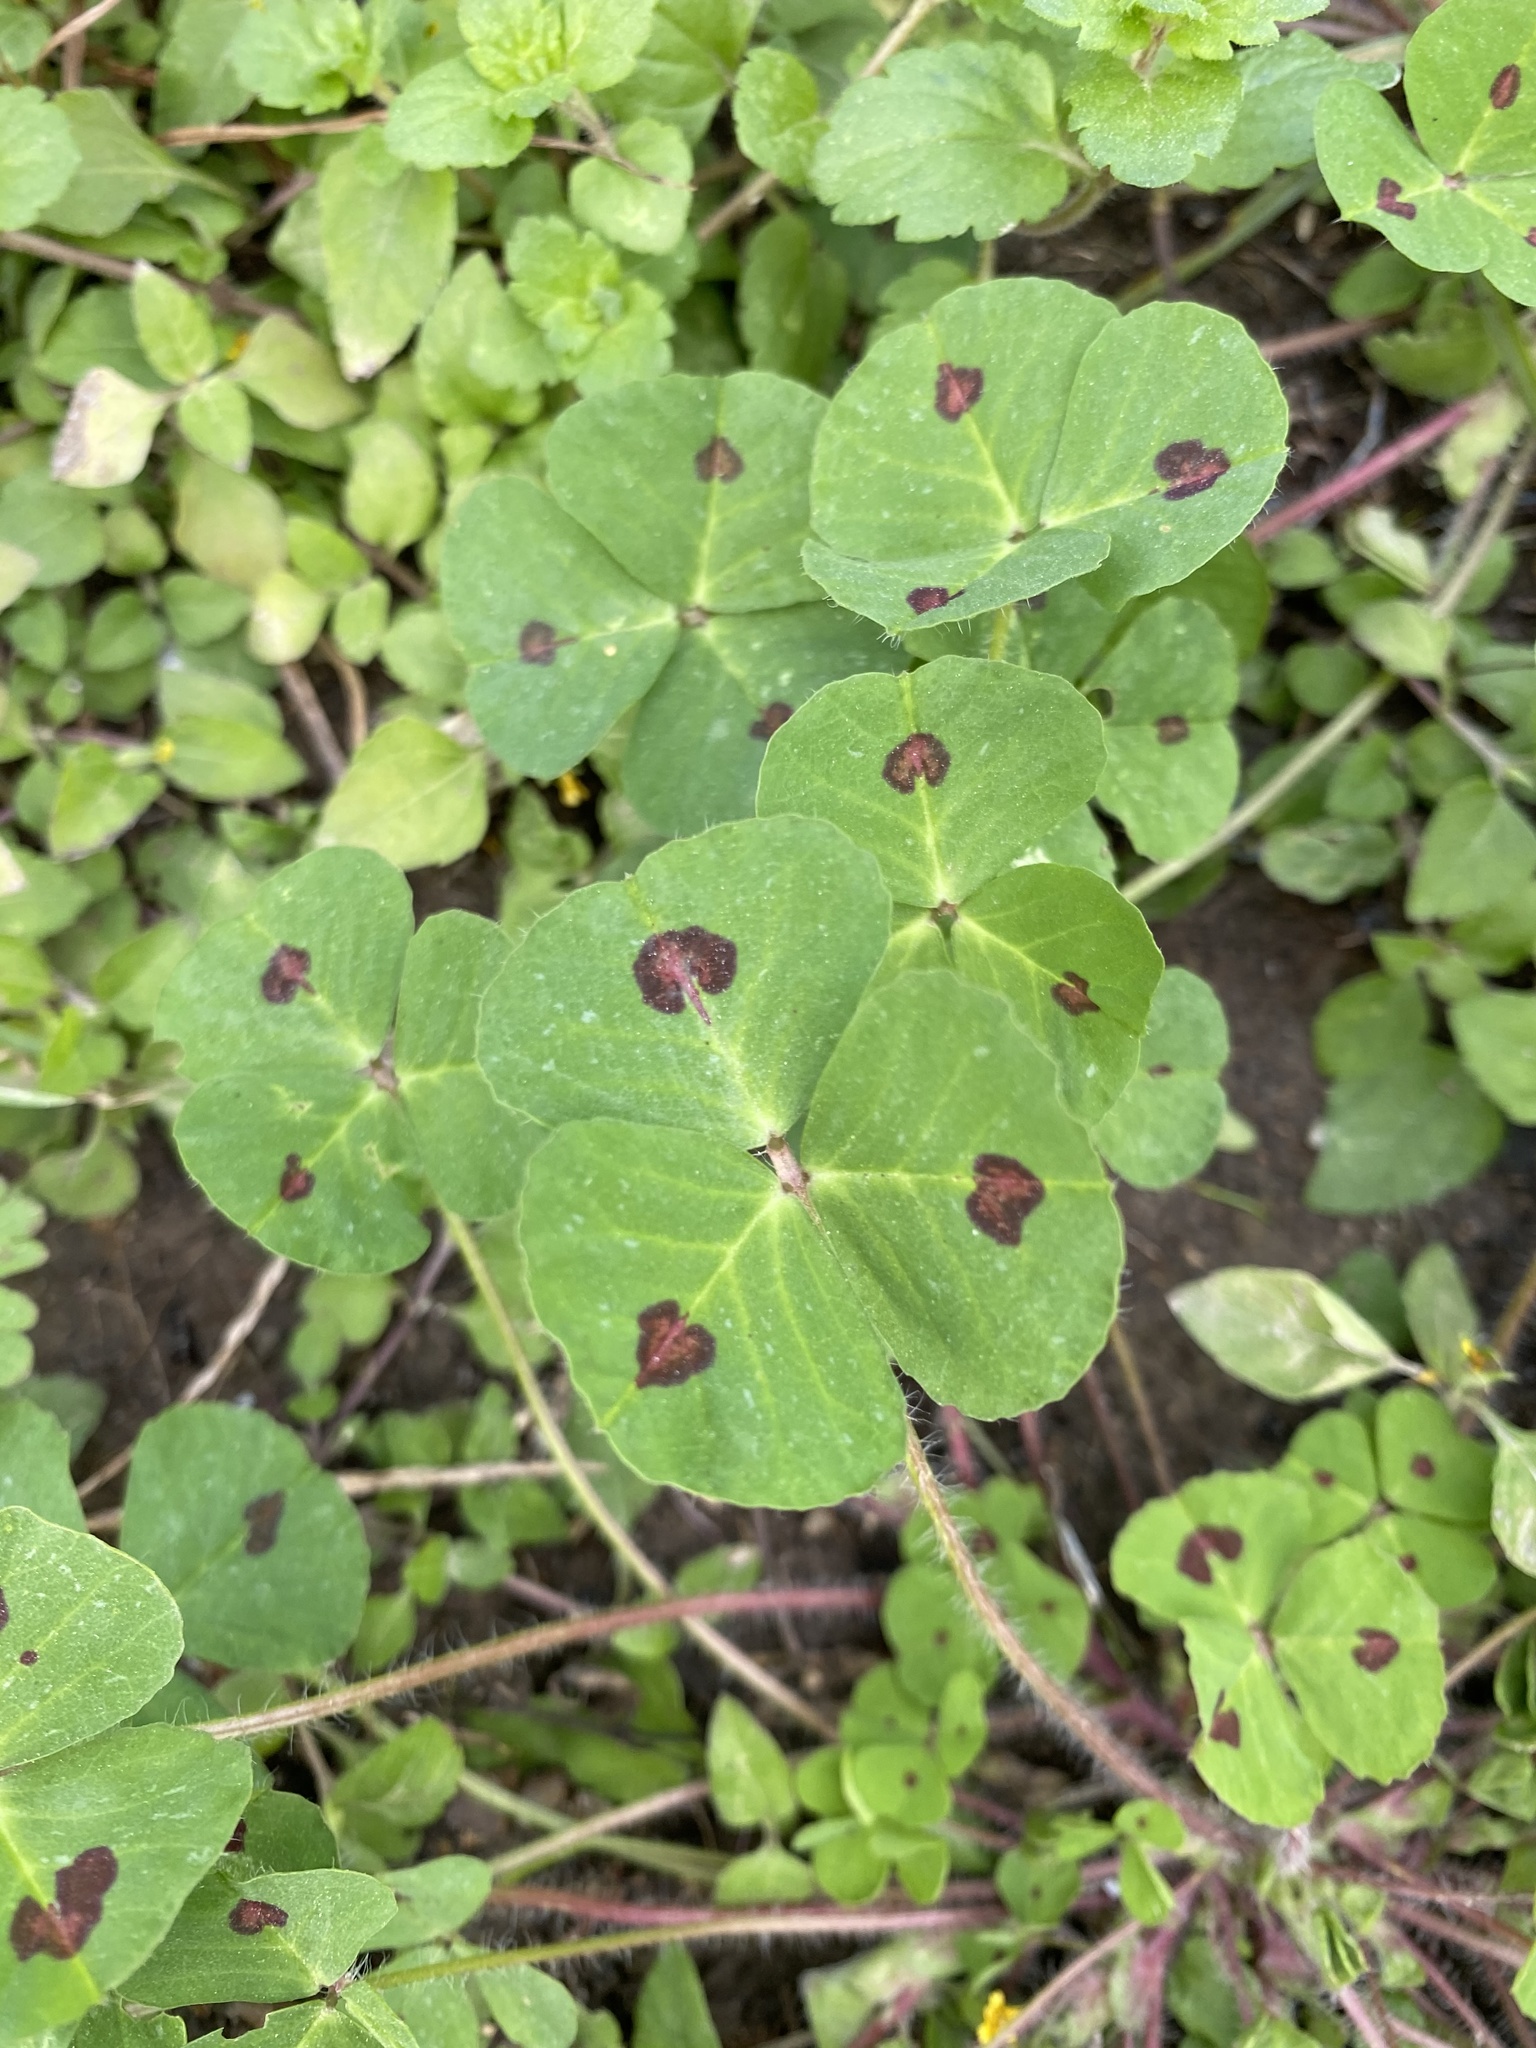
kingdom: Plantae
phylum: Tracheophyta
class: Magnoliopsida
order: Fabales
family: Fabaceae
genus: Medicago
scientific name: Medicago arabica
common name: Spotted medick
